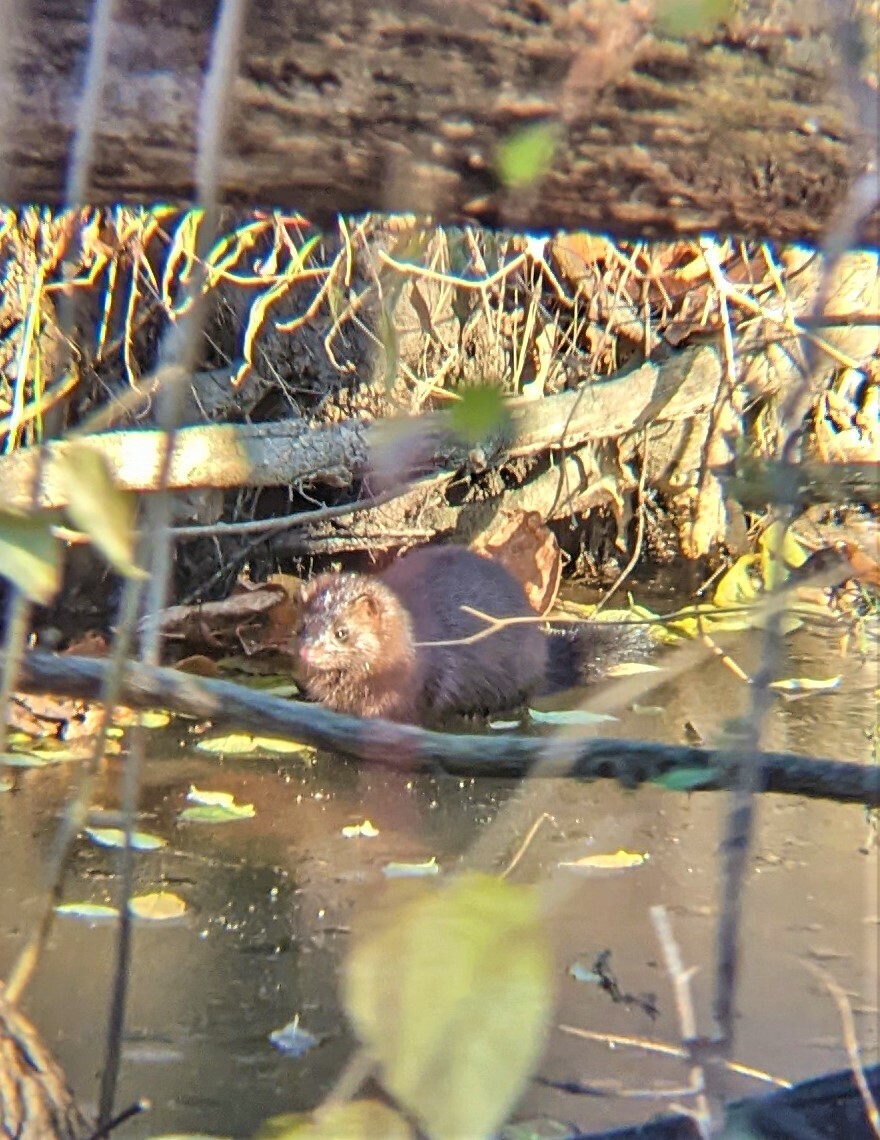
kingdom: Animalia
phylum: Chordata
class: Mammalia
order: Carnivora
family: Mustelidae
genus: Mustela
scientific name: Mustela
